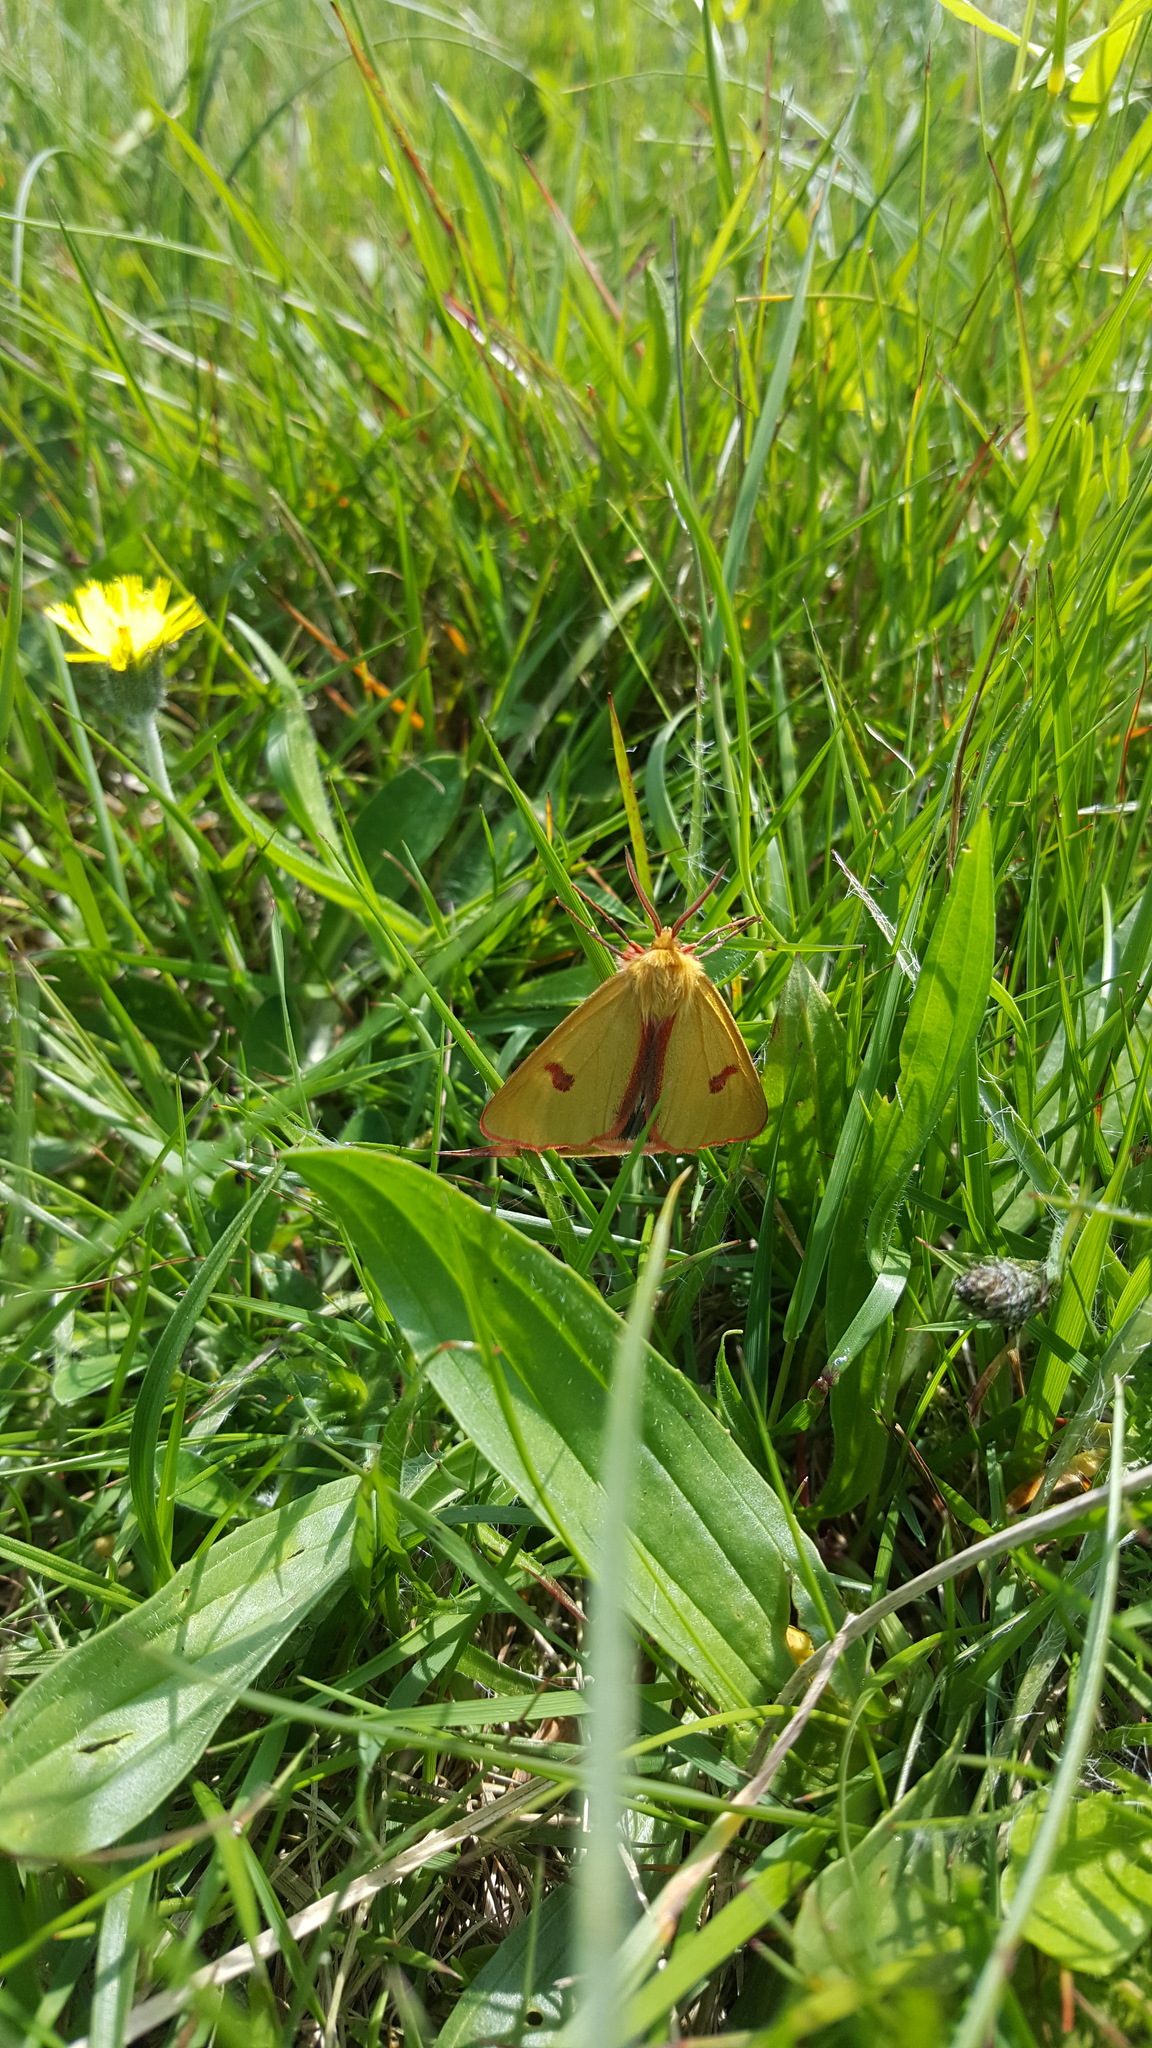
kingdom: Animalia
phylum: Arthropoda
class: Insecta
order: Lepidoptera
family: Erebidae
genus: Diacrisia
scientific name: Diacrisia sannio
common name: Clouded buff
